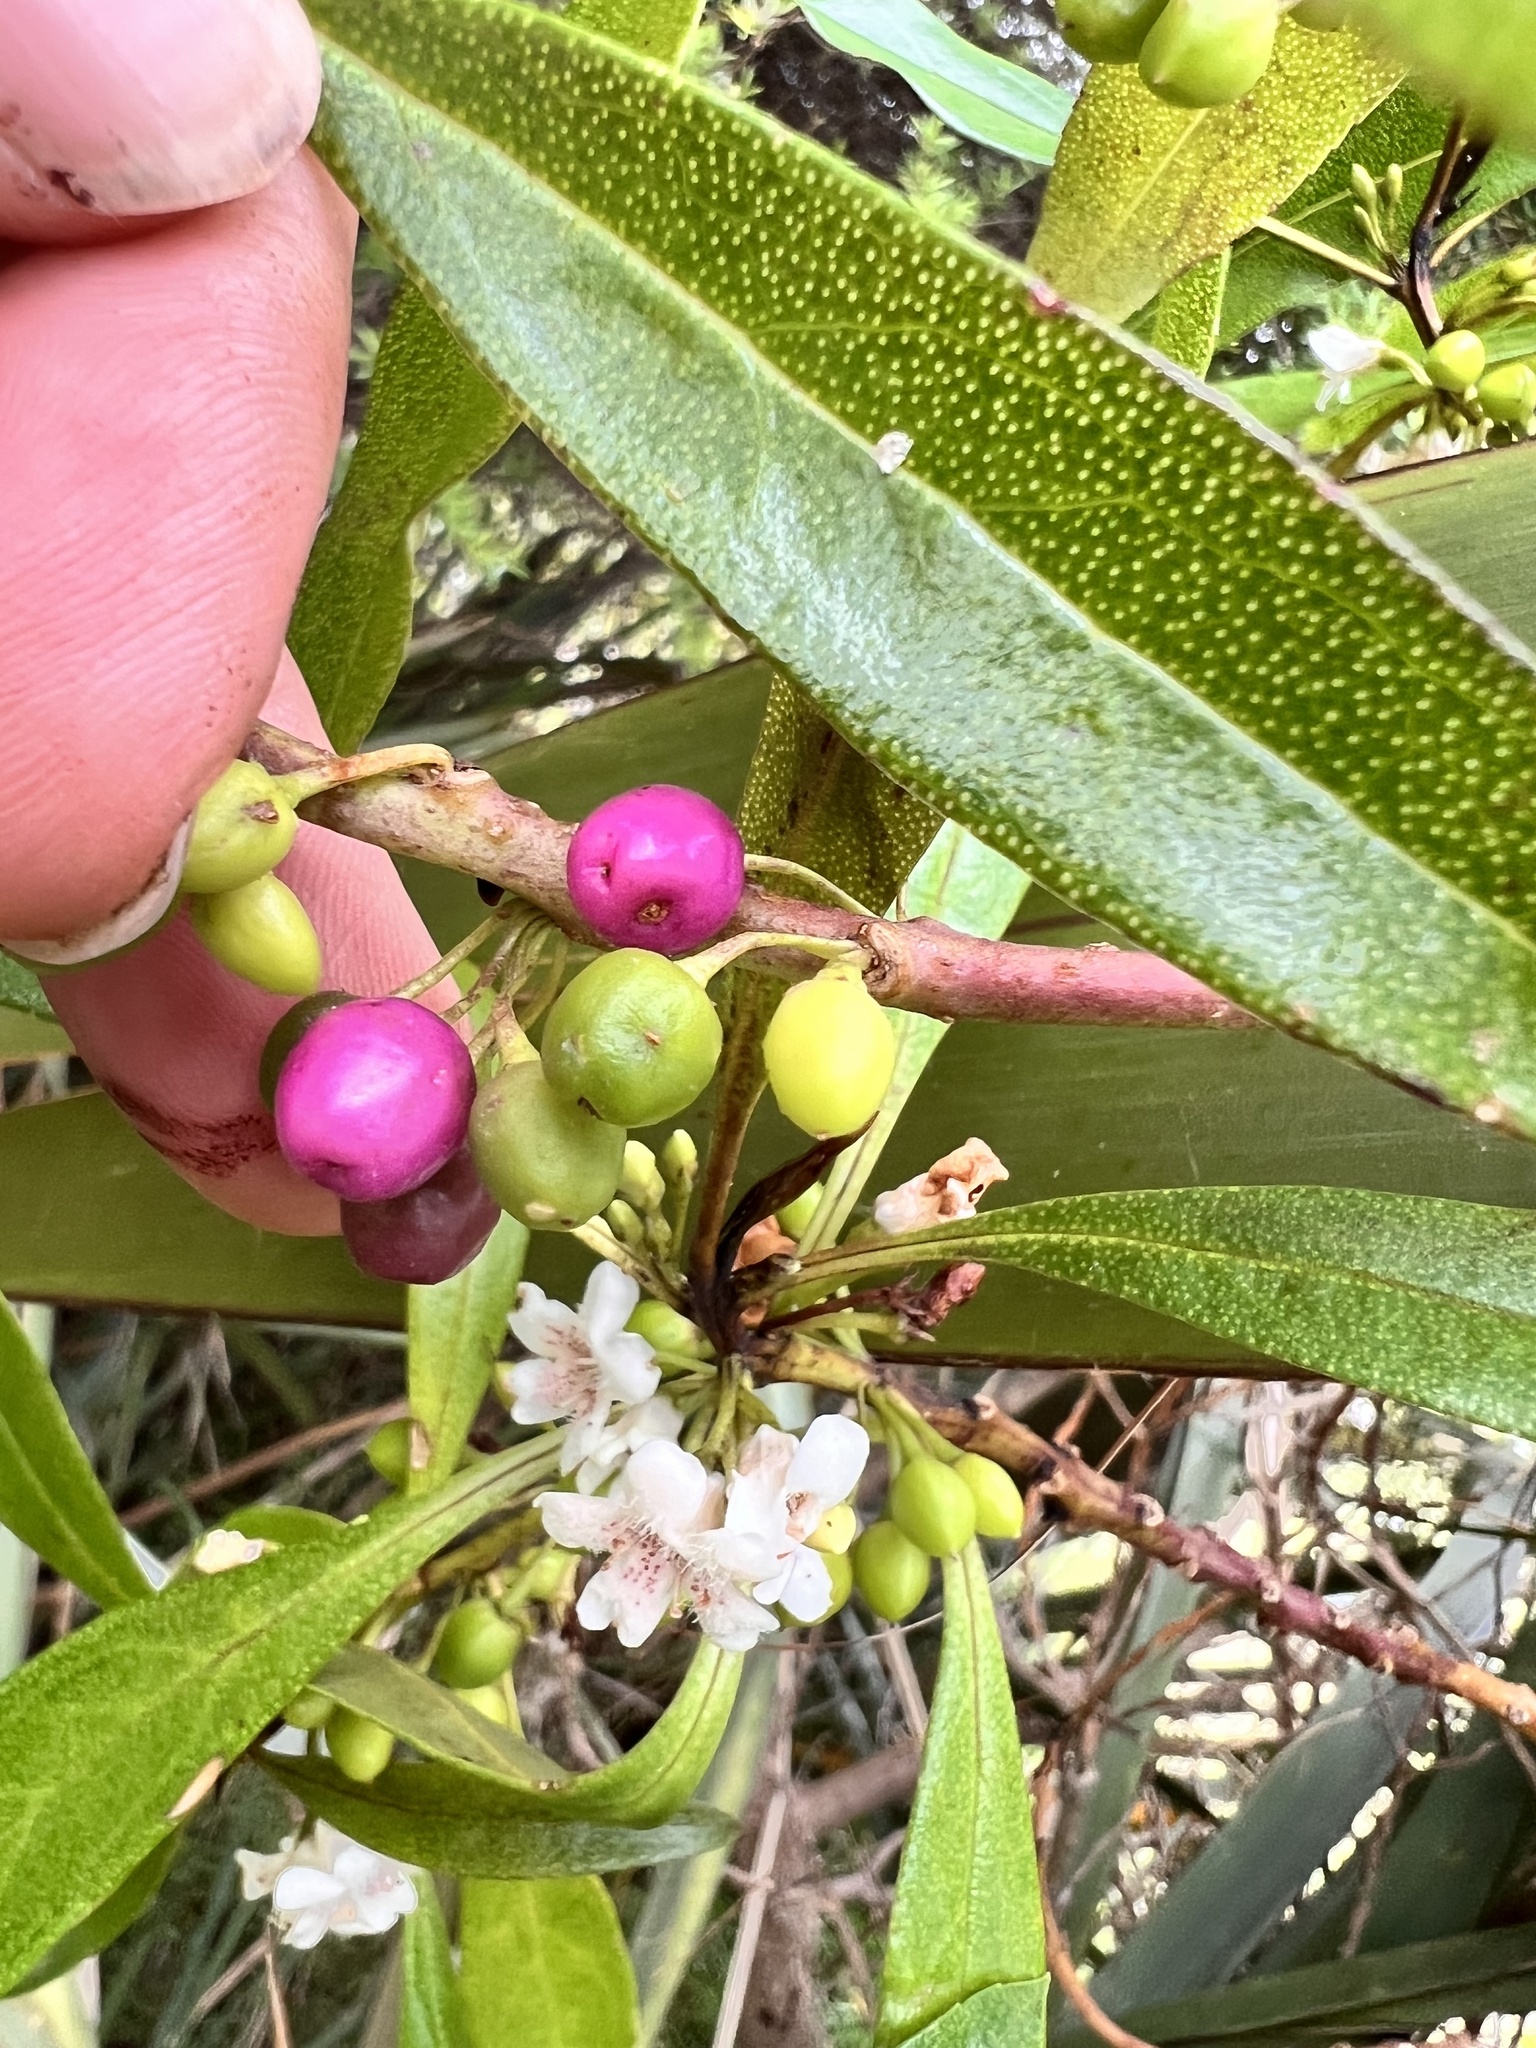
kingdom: Plantae
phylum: Tracheophyta
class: Magnoliopsida
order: Lamiales
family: Scrophulariaceae
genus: Myoporum
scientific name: Myoporum laetum
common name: Ngaio tree
